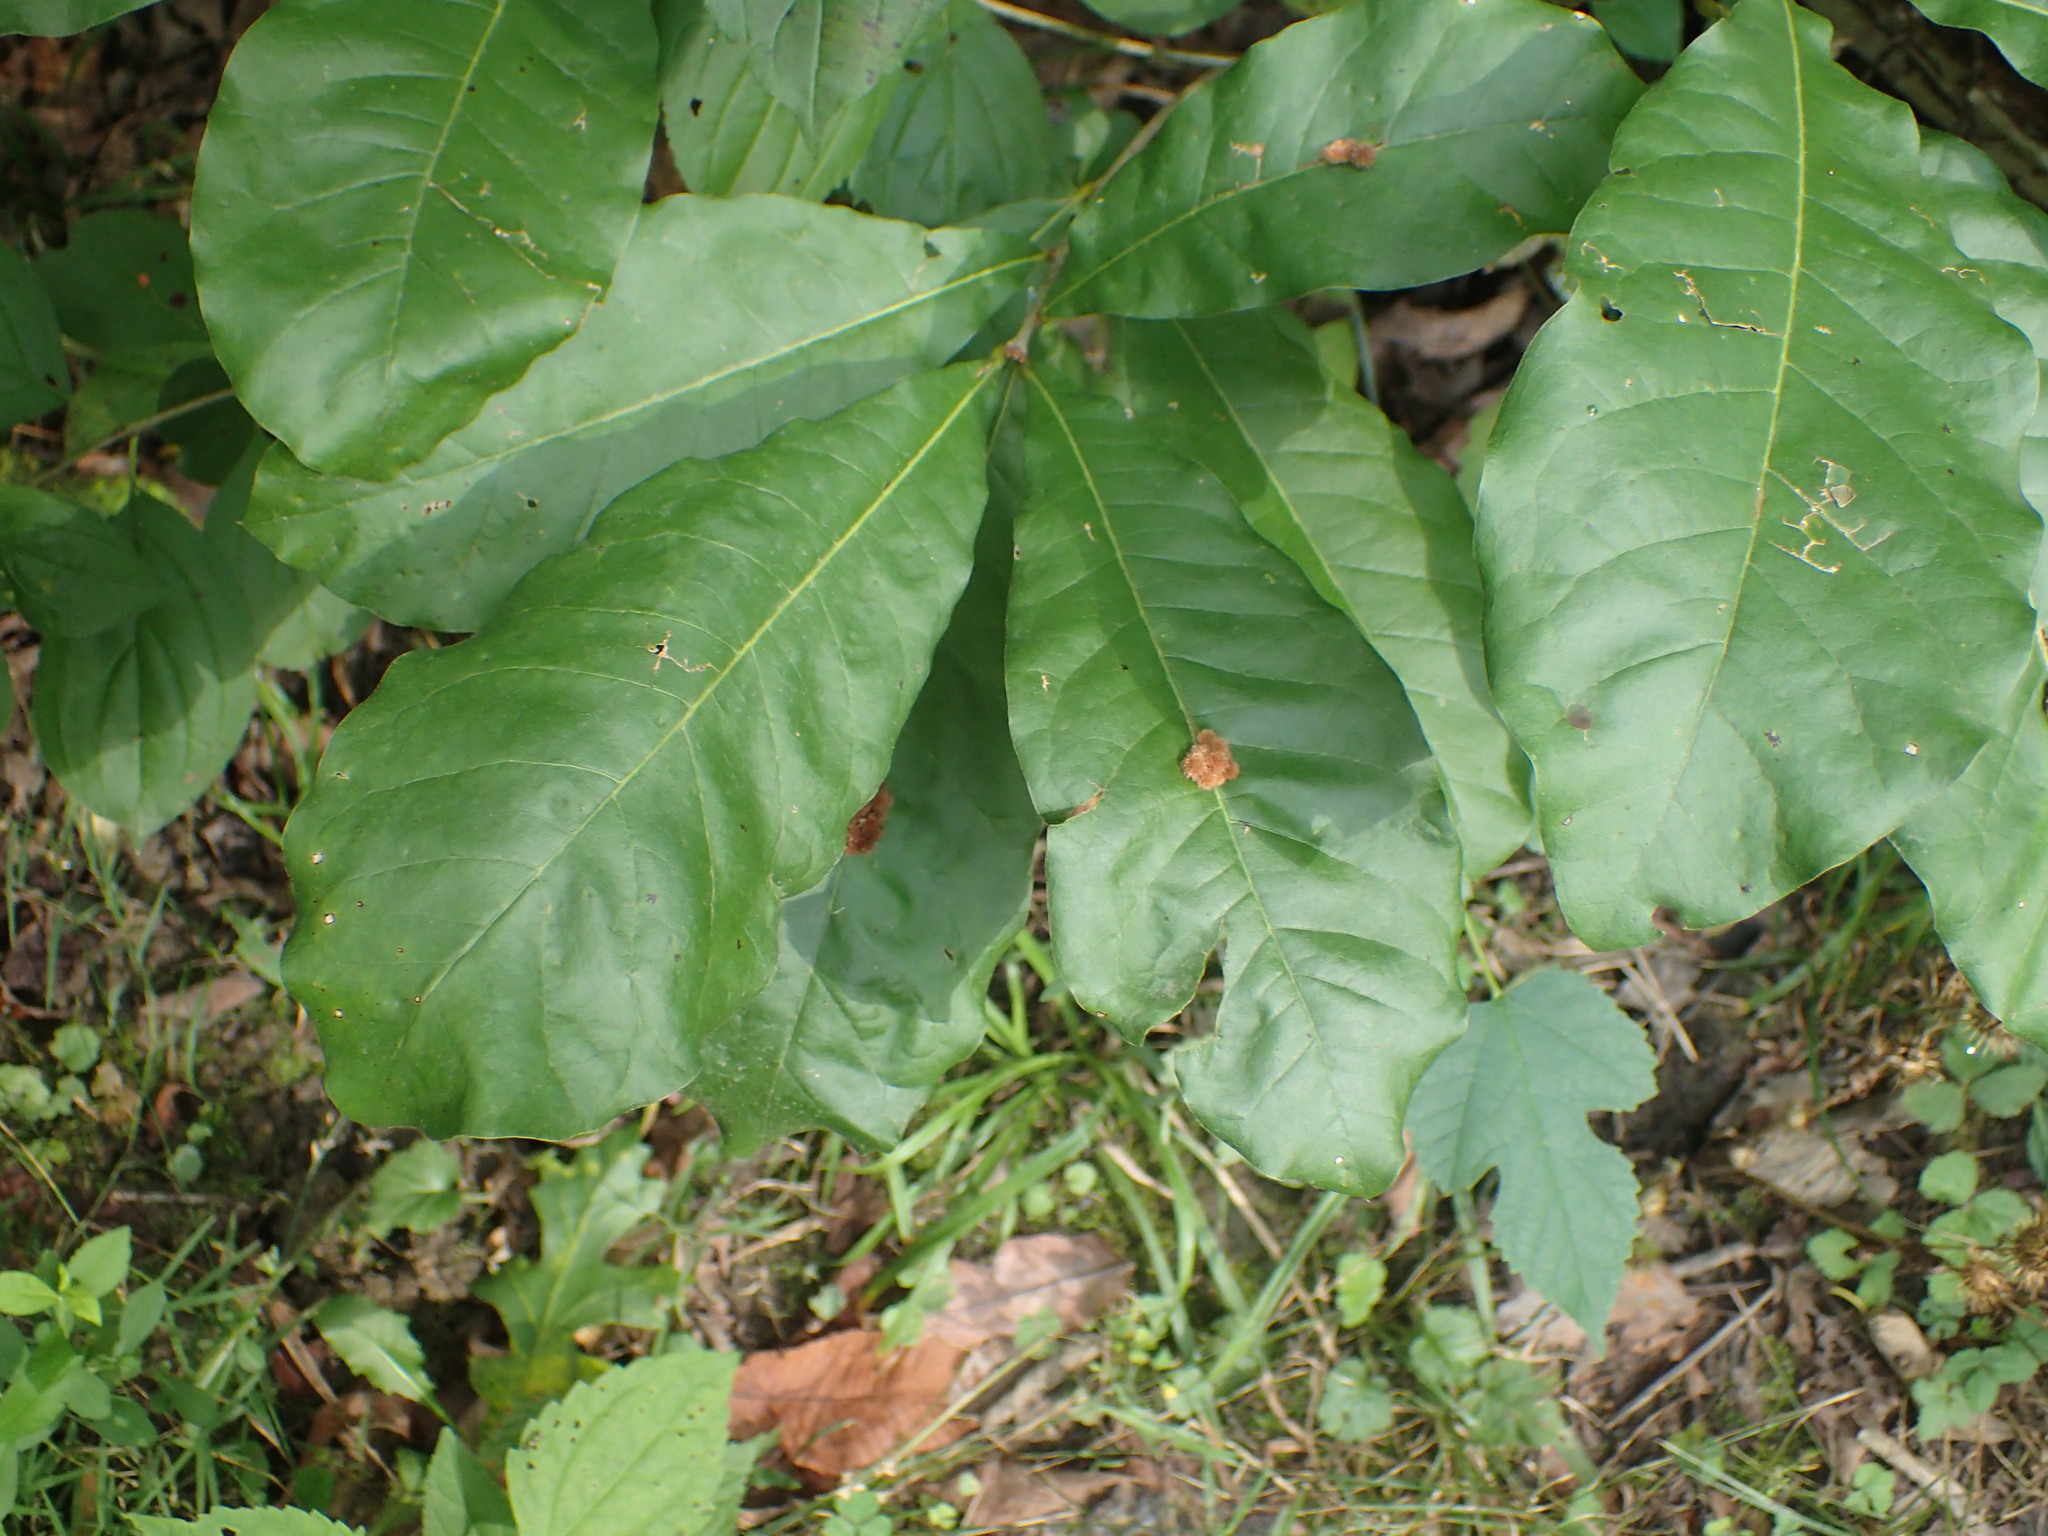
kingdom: Animalia
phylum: Arthropoda
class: Insecta
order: Hymenoptera
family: Cynipidae
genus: Callirhytis
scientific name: Callirhytis
